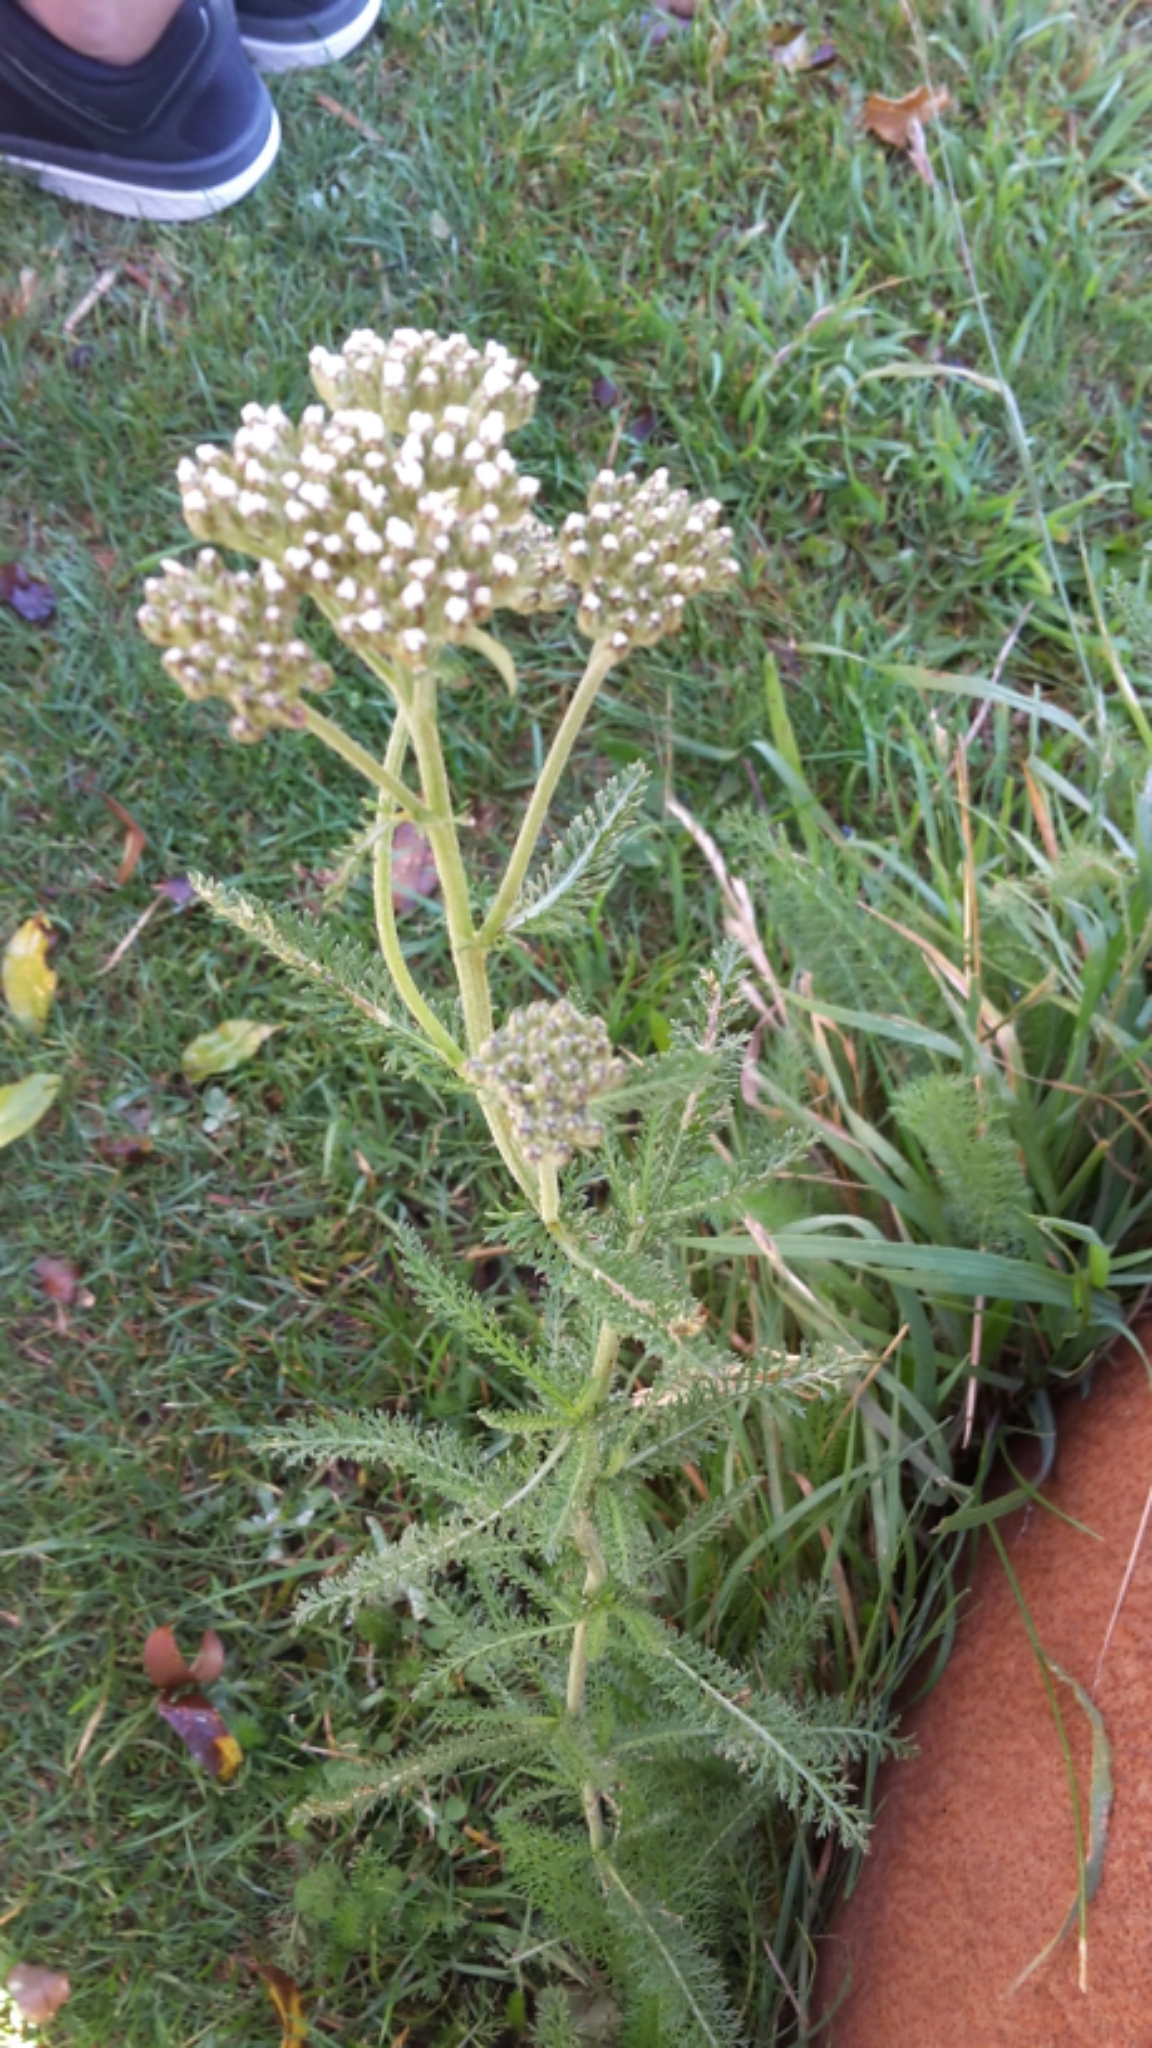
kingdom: Plantae
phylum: Tracheophyta
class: Magnoliopsida
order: Asterales
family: Asteraceae
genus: Achillea
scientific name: Achillea millefolium
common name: Yarrow
